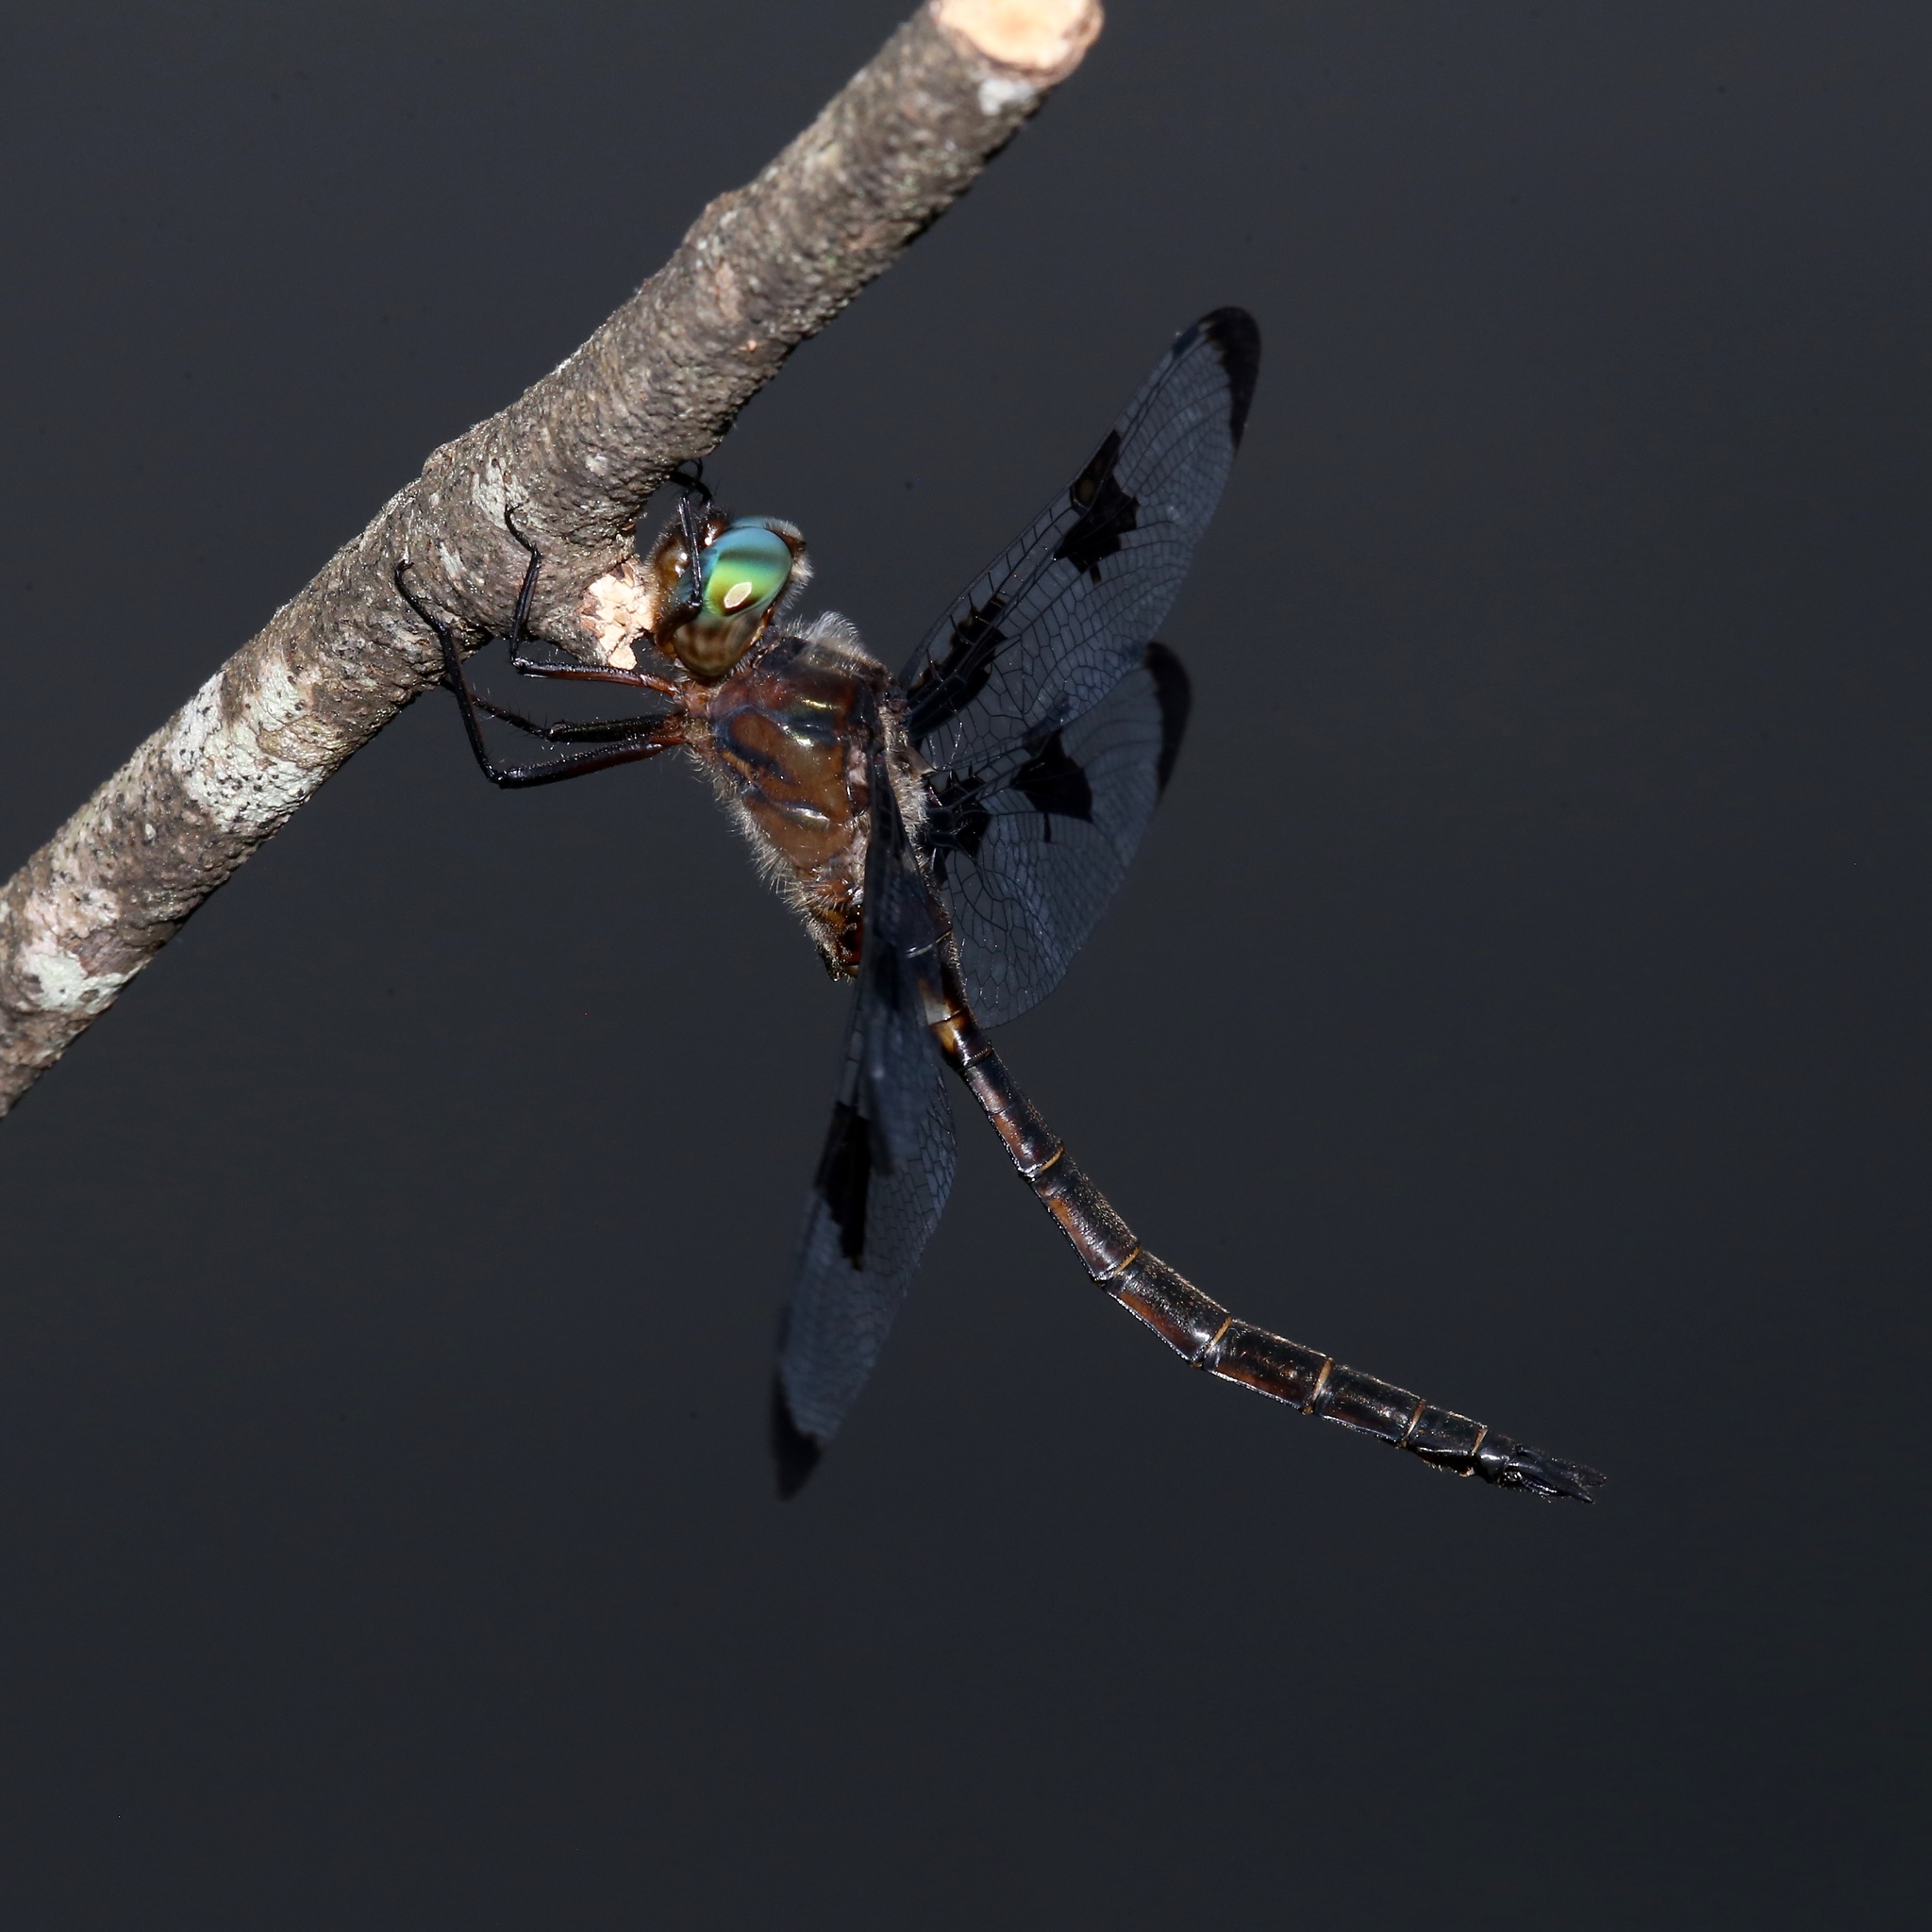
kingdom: Animalia
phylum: Arthropoda
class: Insecta
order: Odonata
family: Corduliidae
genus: Epitheca
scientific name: Epitheca princeps
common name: Prince baskettail
